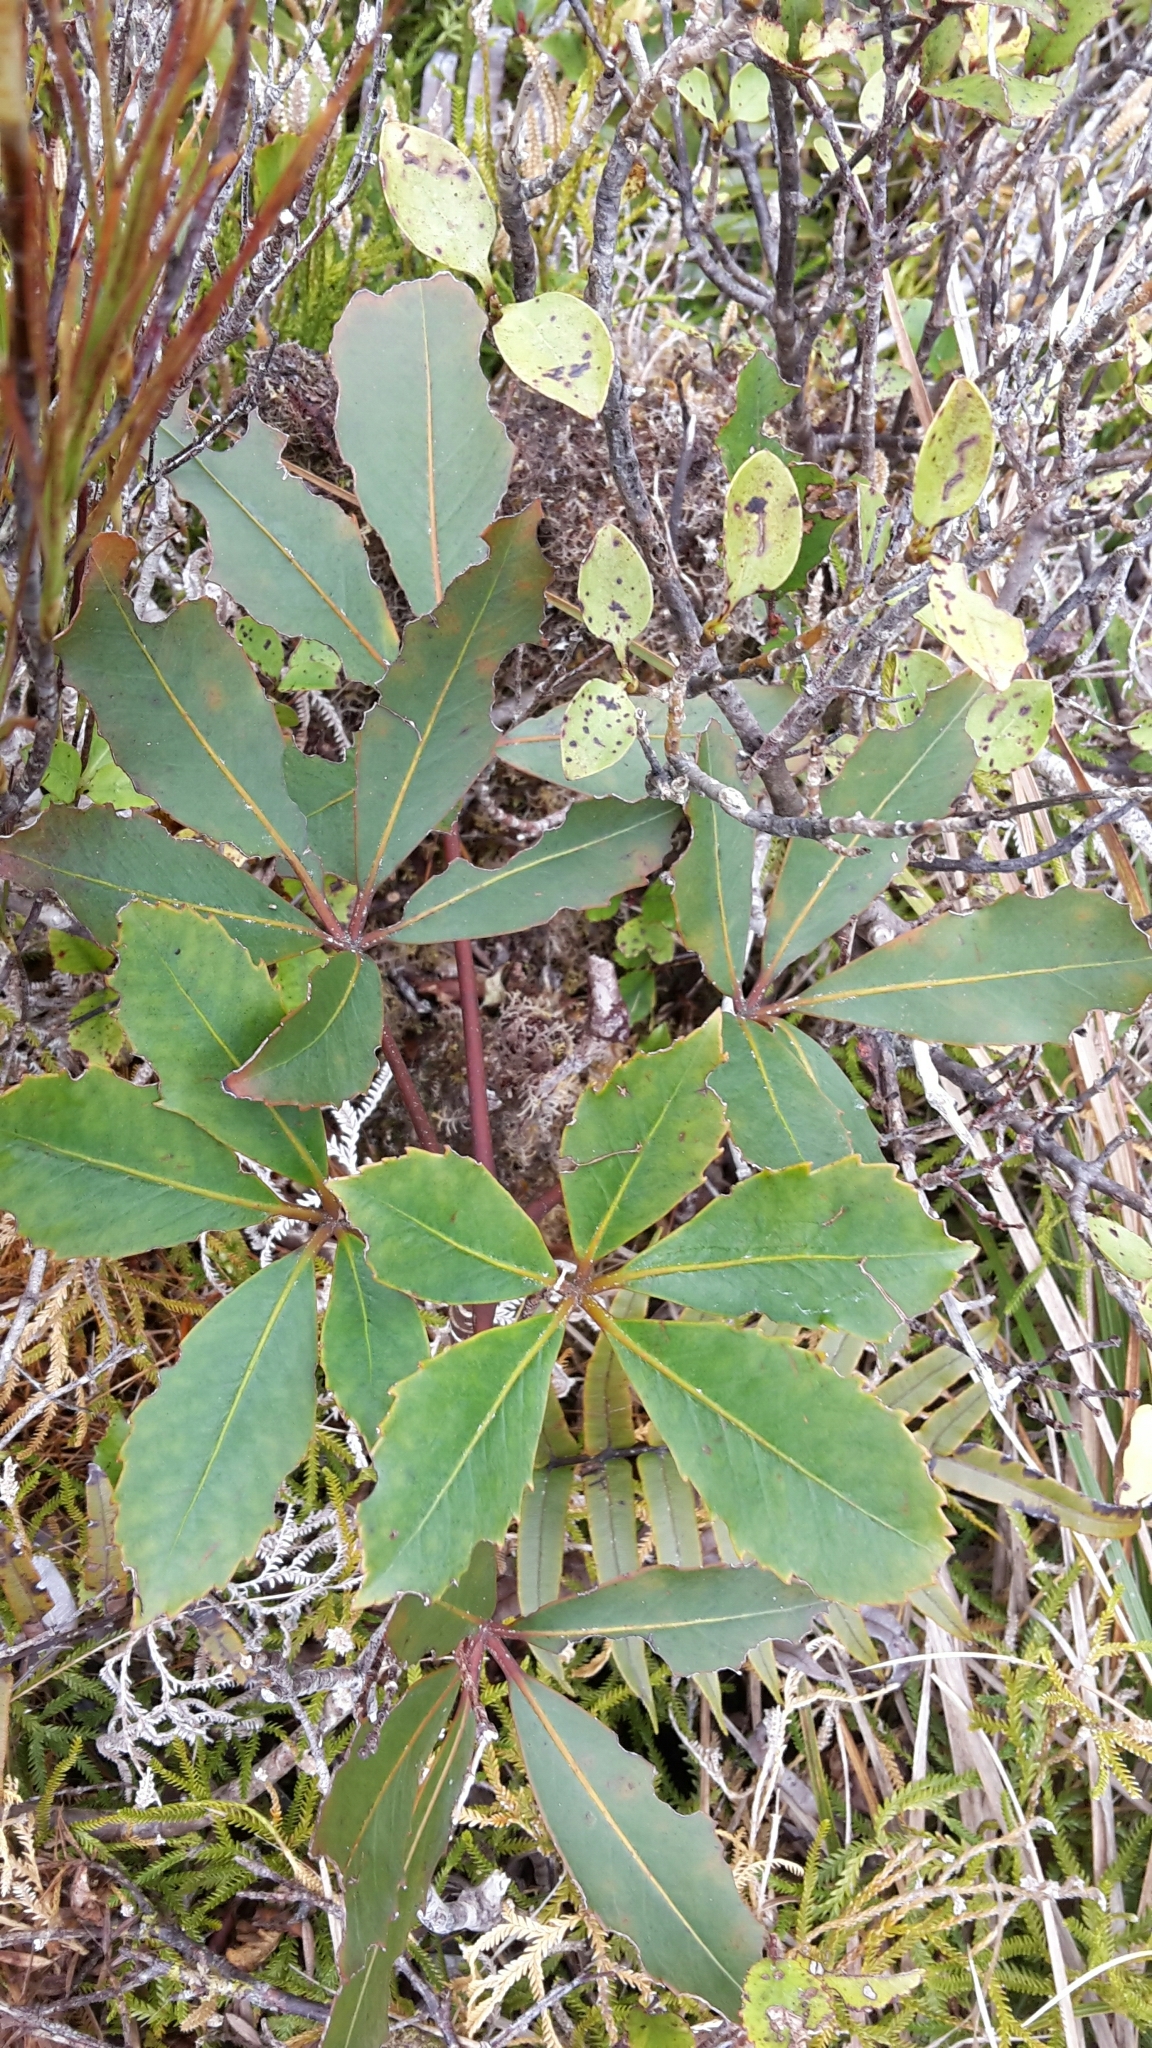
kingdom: Plantae
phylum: Tracheophyta
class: Magnoliopsida
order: Apiales
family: Araliaceae
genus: Neopanax
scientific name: Neopanax colensoi
